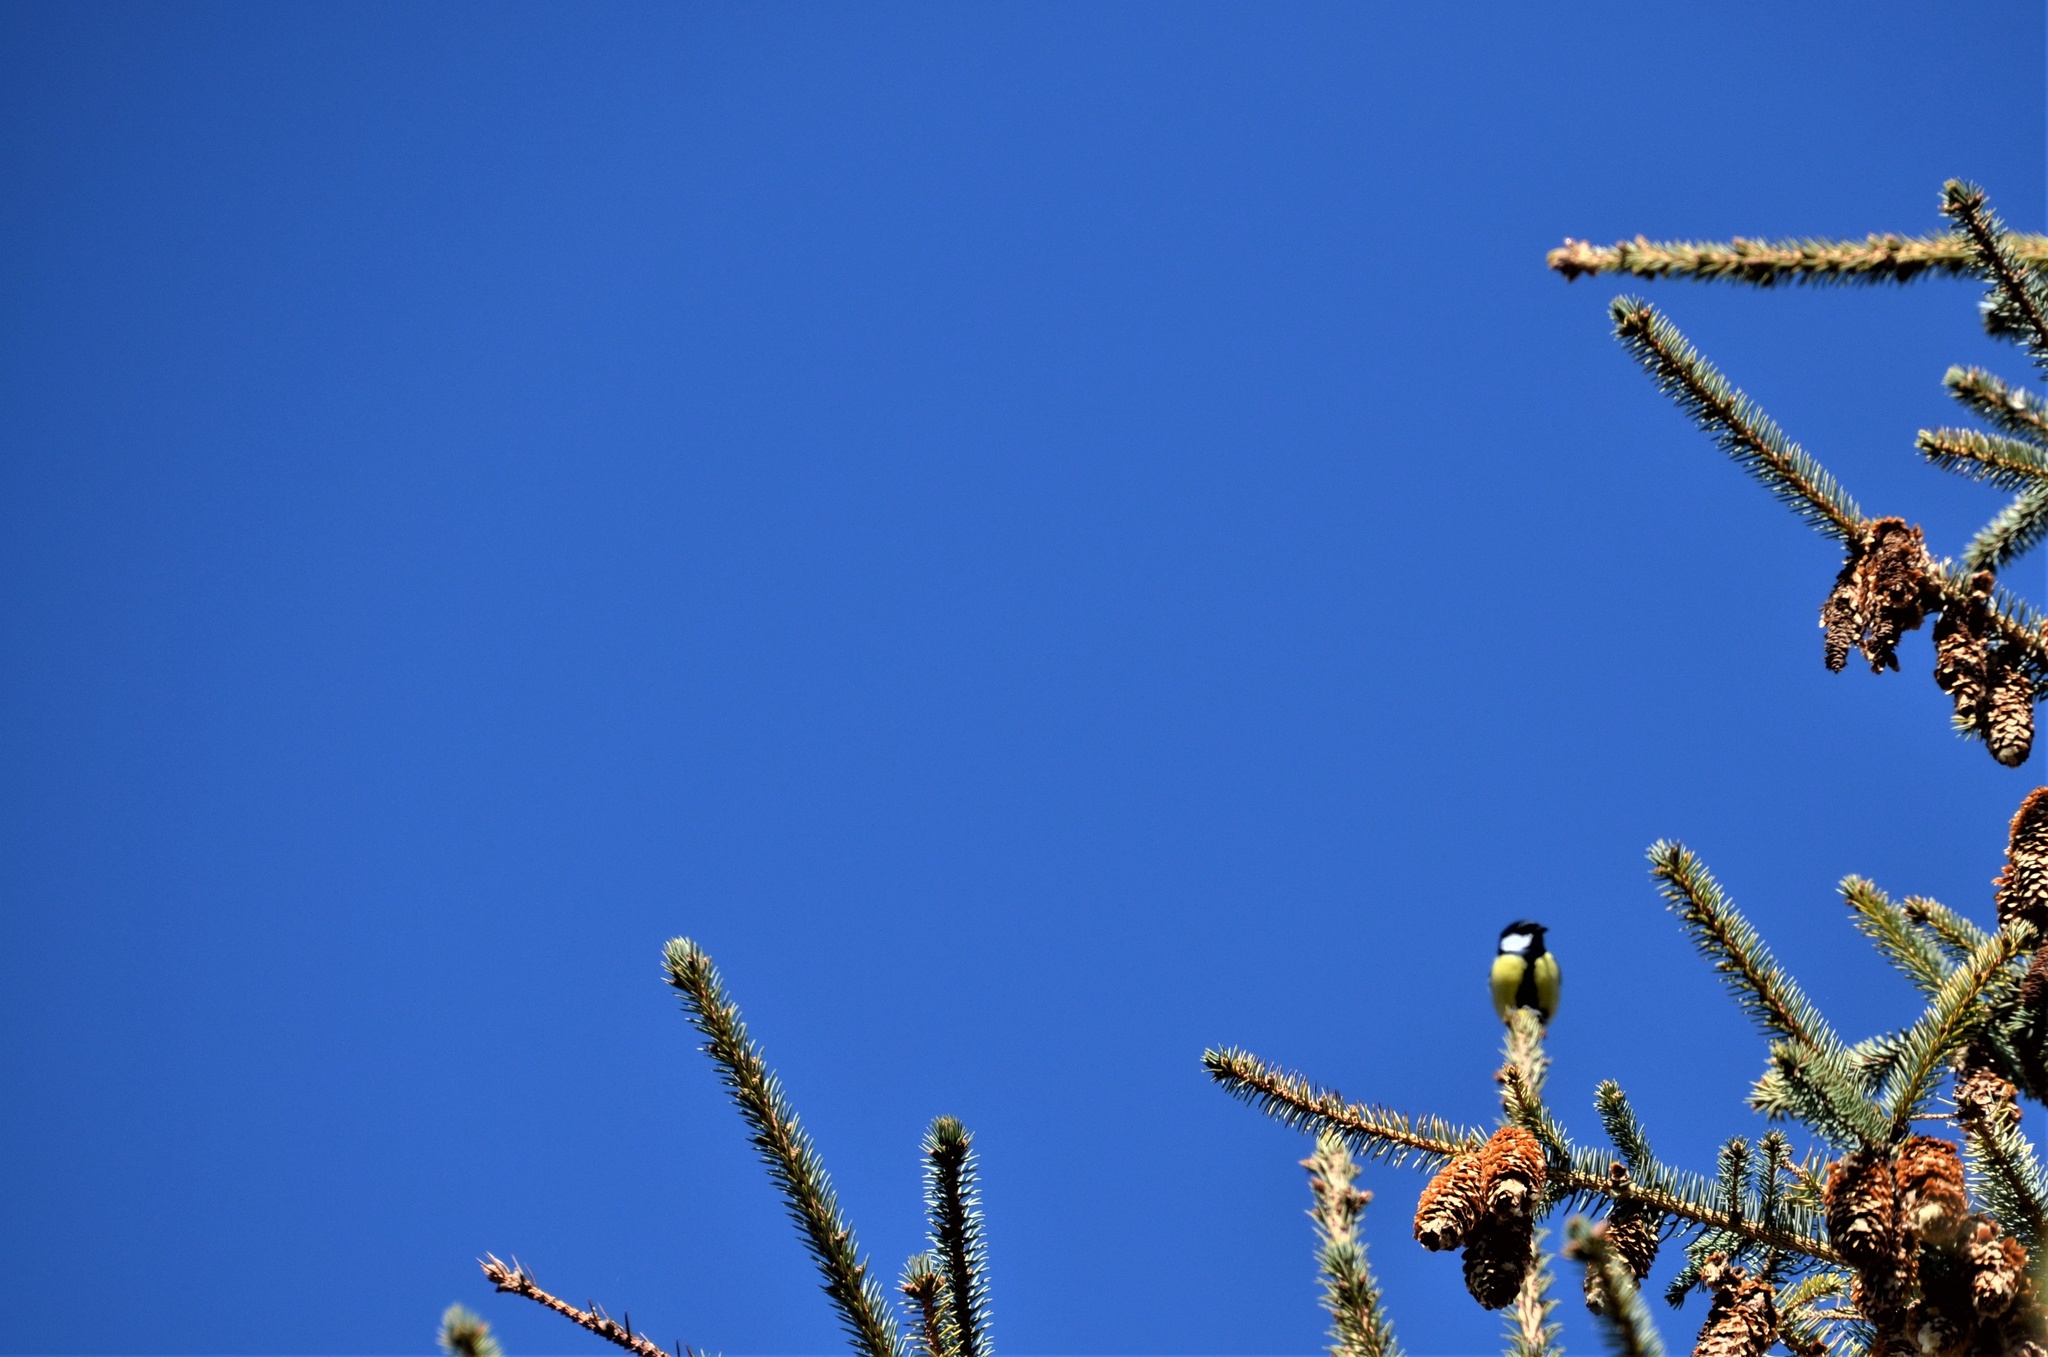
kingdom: Animalia
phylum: Chordata
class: Aves
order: Passeriformes
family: Paridae
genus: Parus
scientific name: Parus major
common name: Great tit
